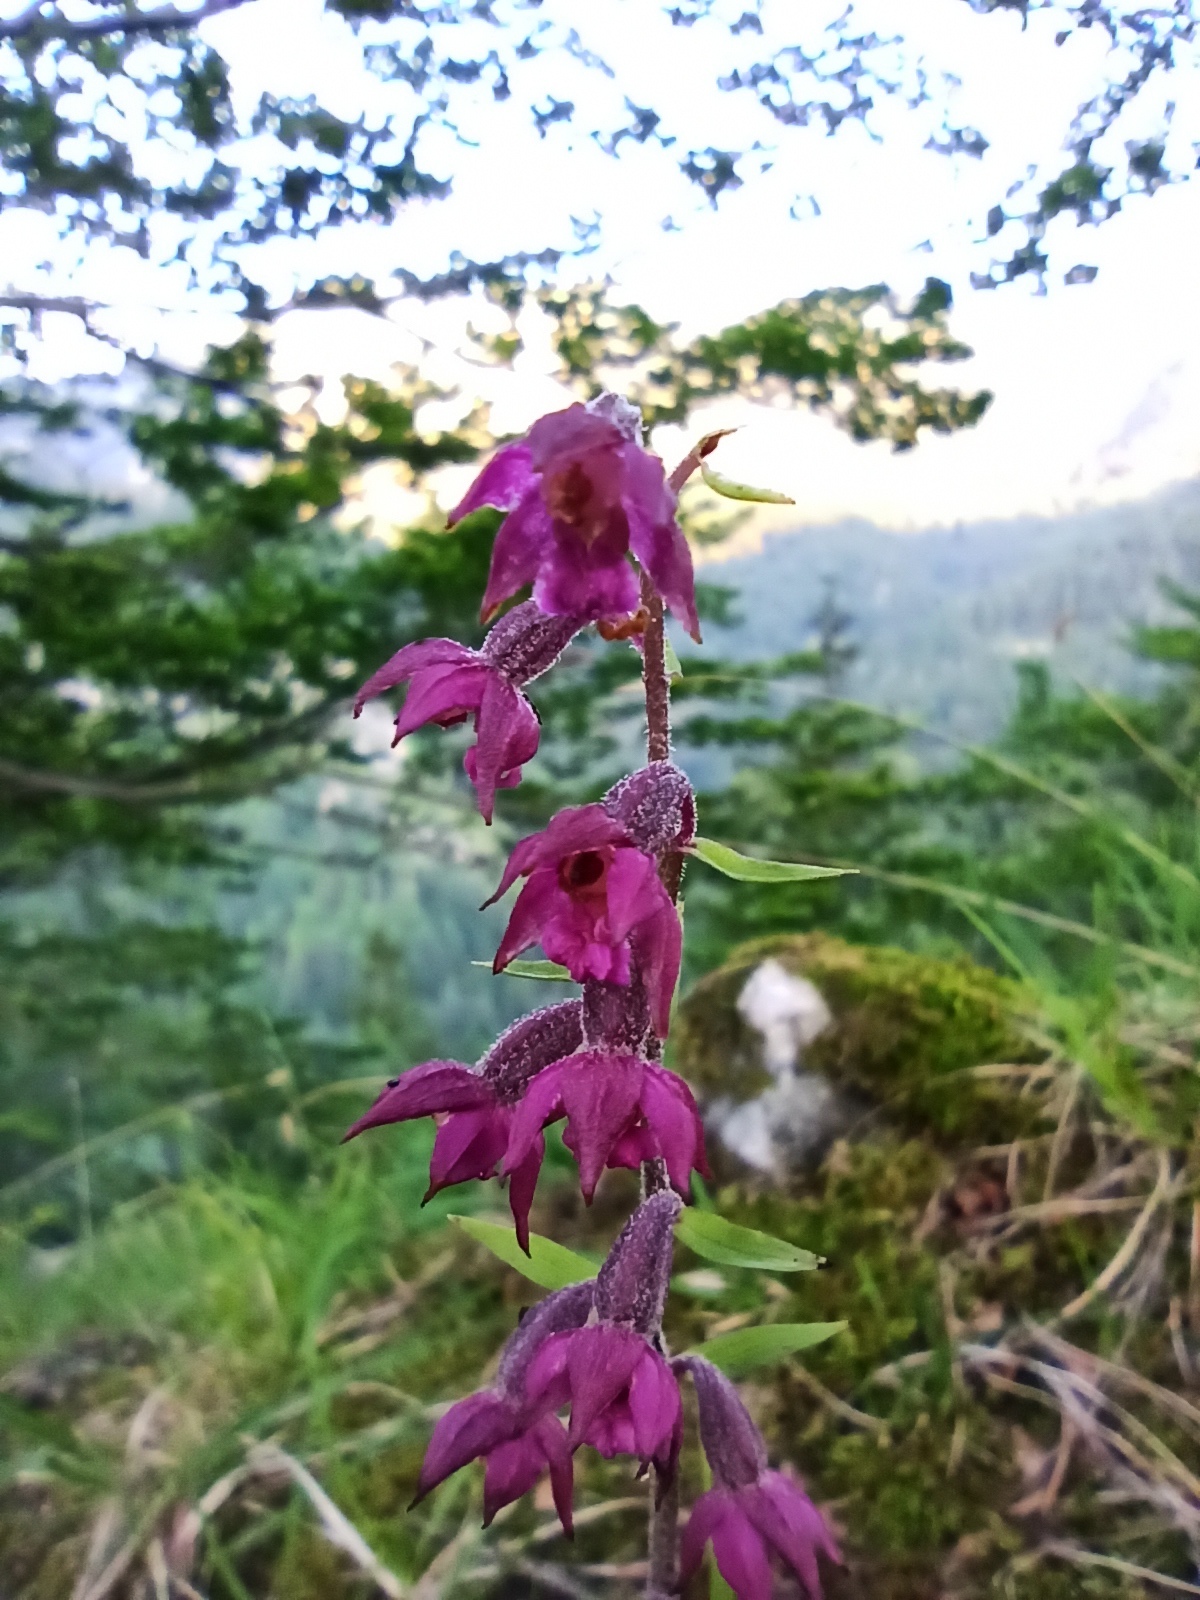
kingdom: Plantae
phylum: Tracheophyta
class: Liliopsida
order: Asparagales
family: Orchidaceae
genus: Epipactis
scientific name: Epipactis atrorubens
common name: Dark-red helleborine
